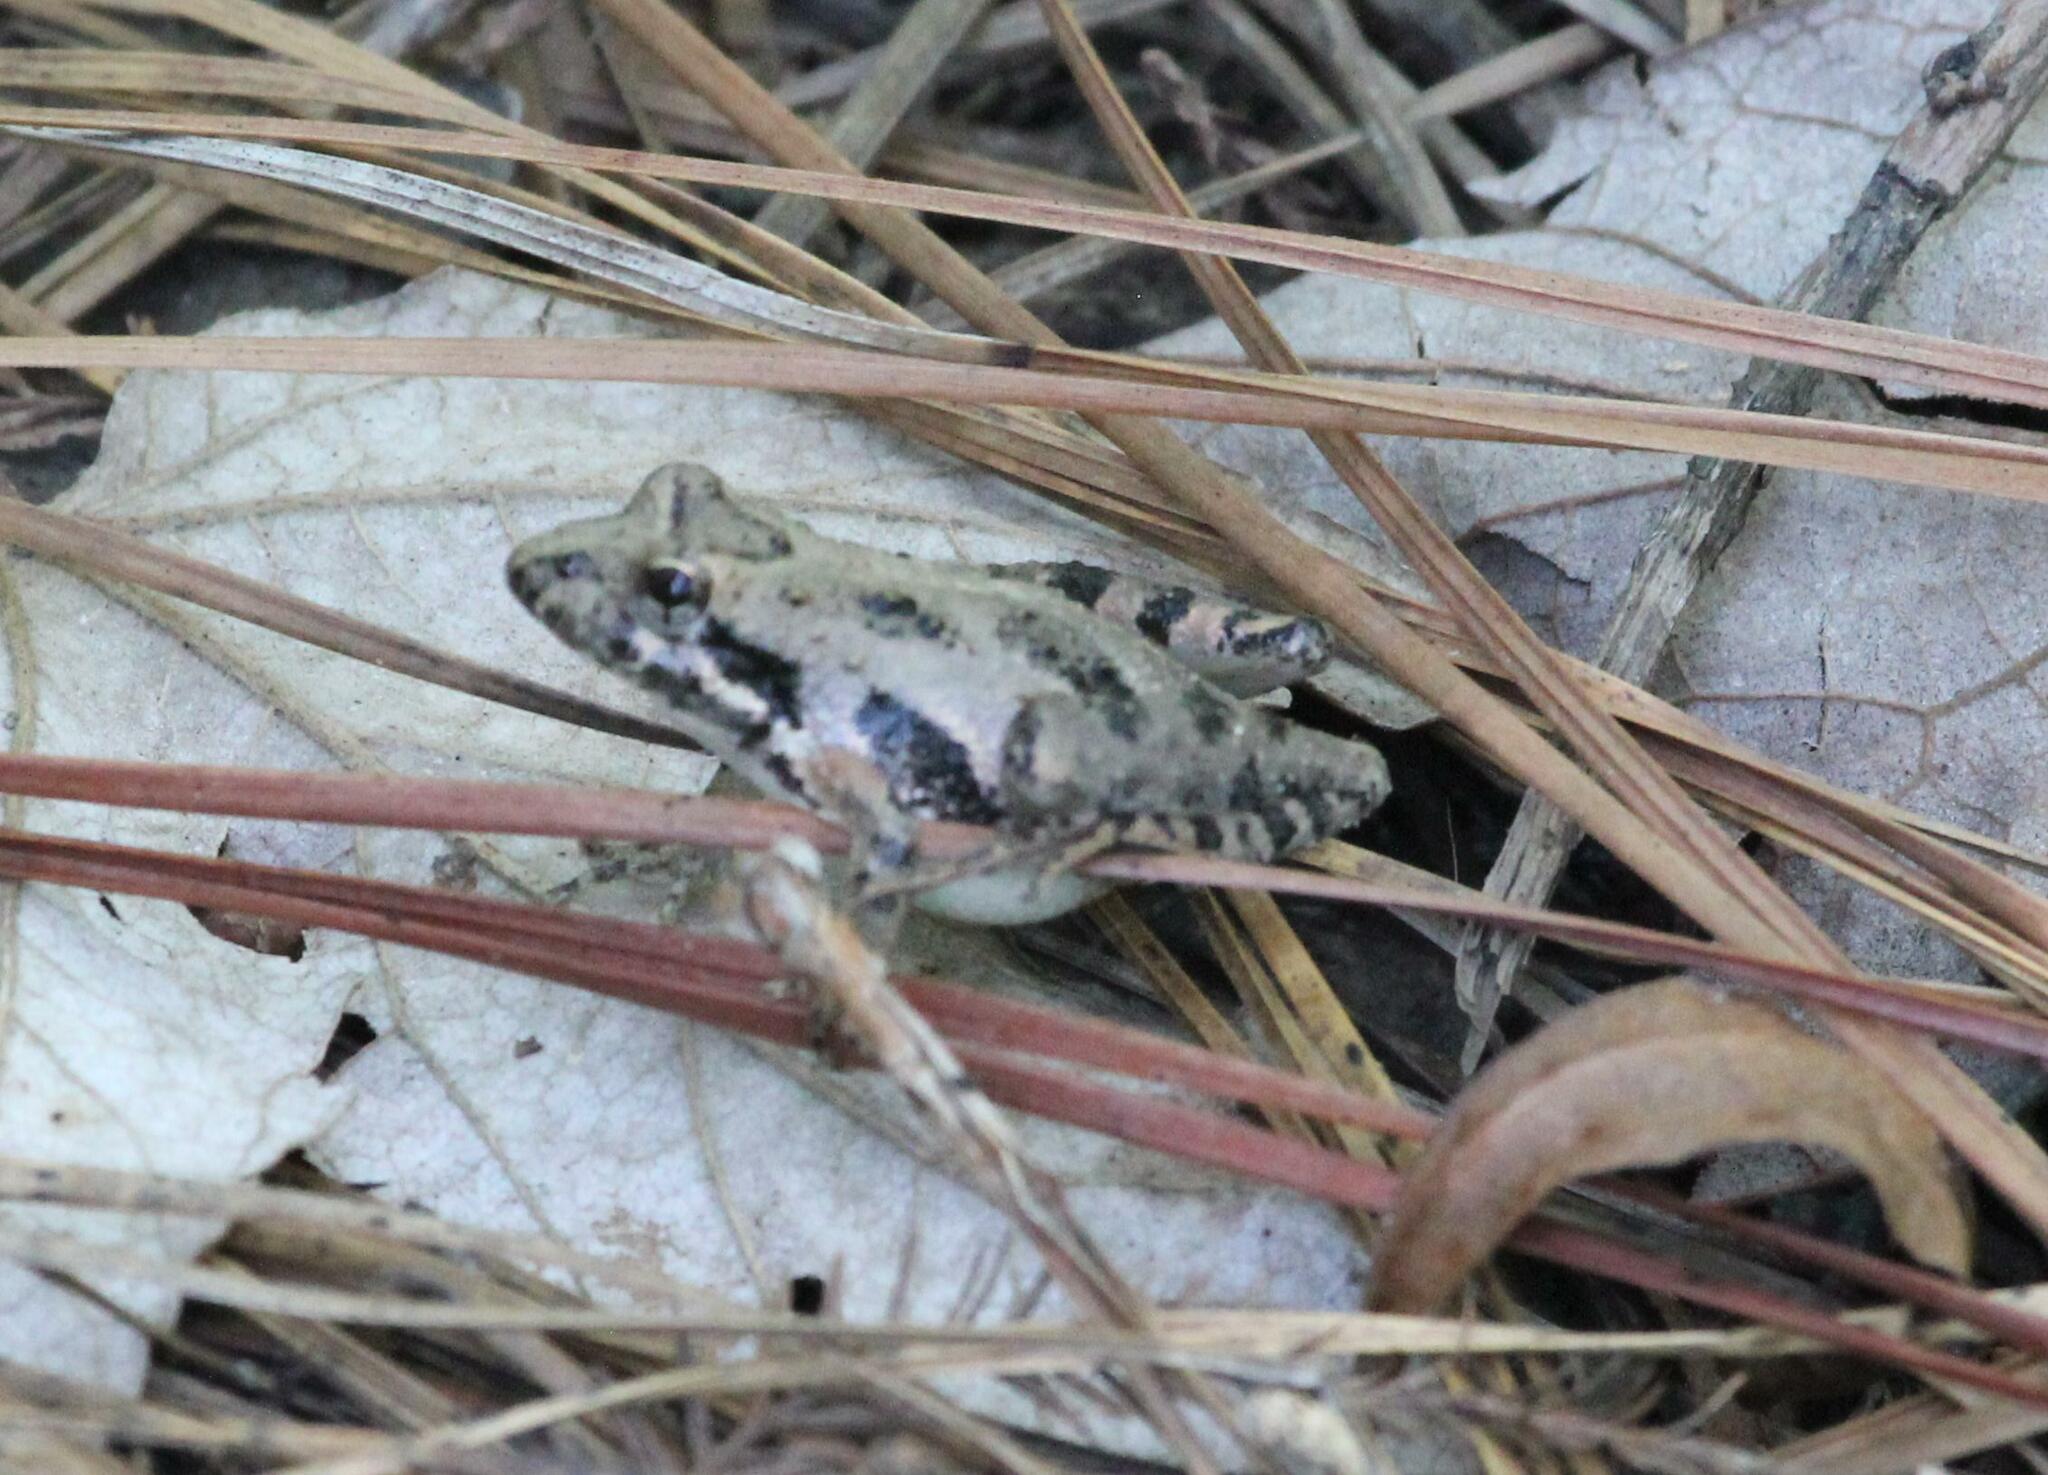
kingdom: Animalia
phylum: Chordata
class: Amphibia
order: Anura
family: Hylidae
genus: Acris
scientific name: Acris gryllus
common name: Southern cricket frog
